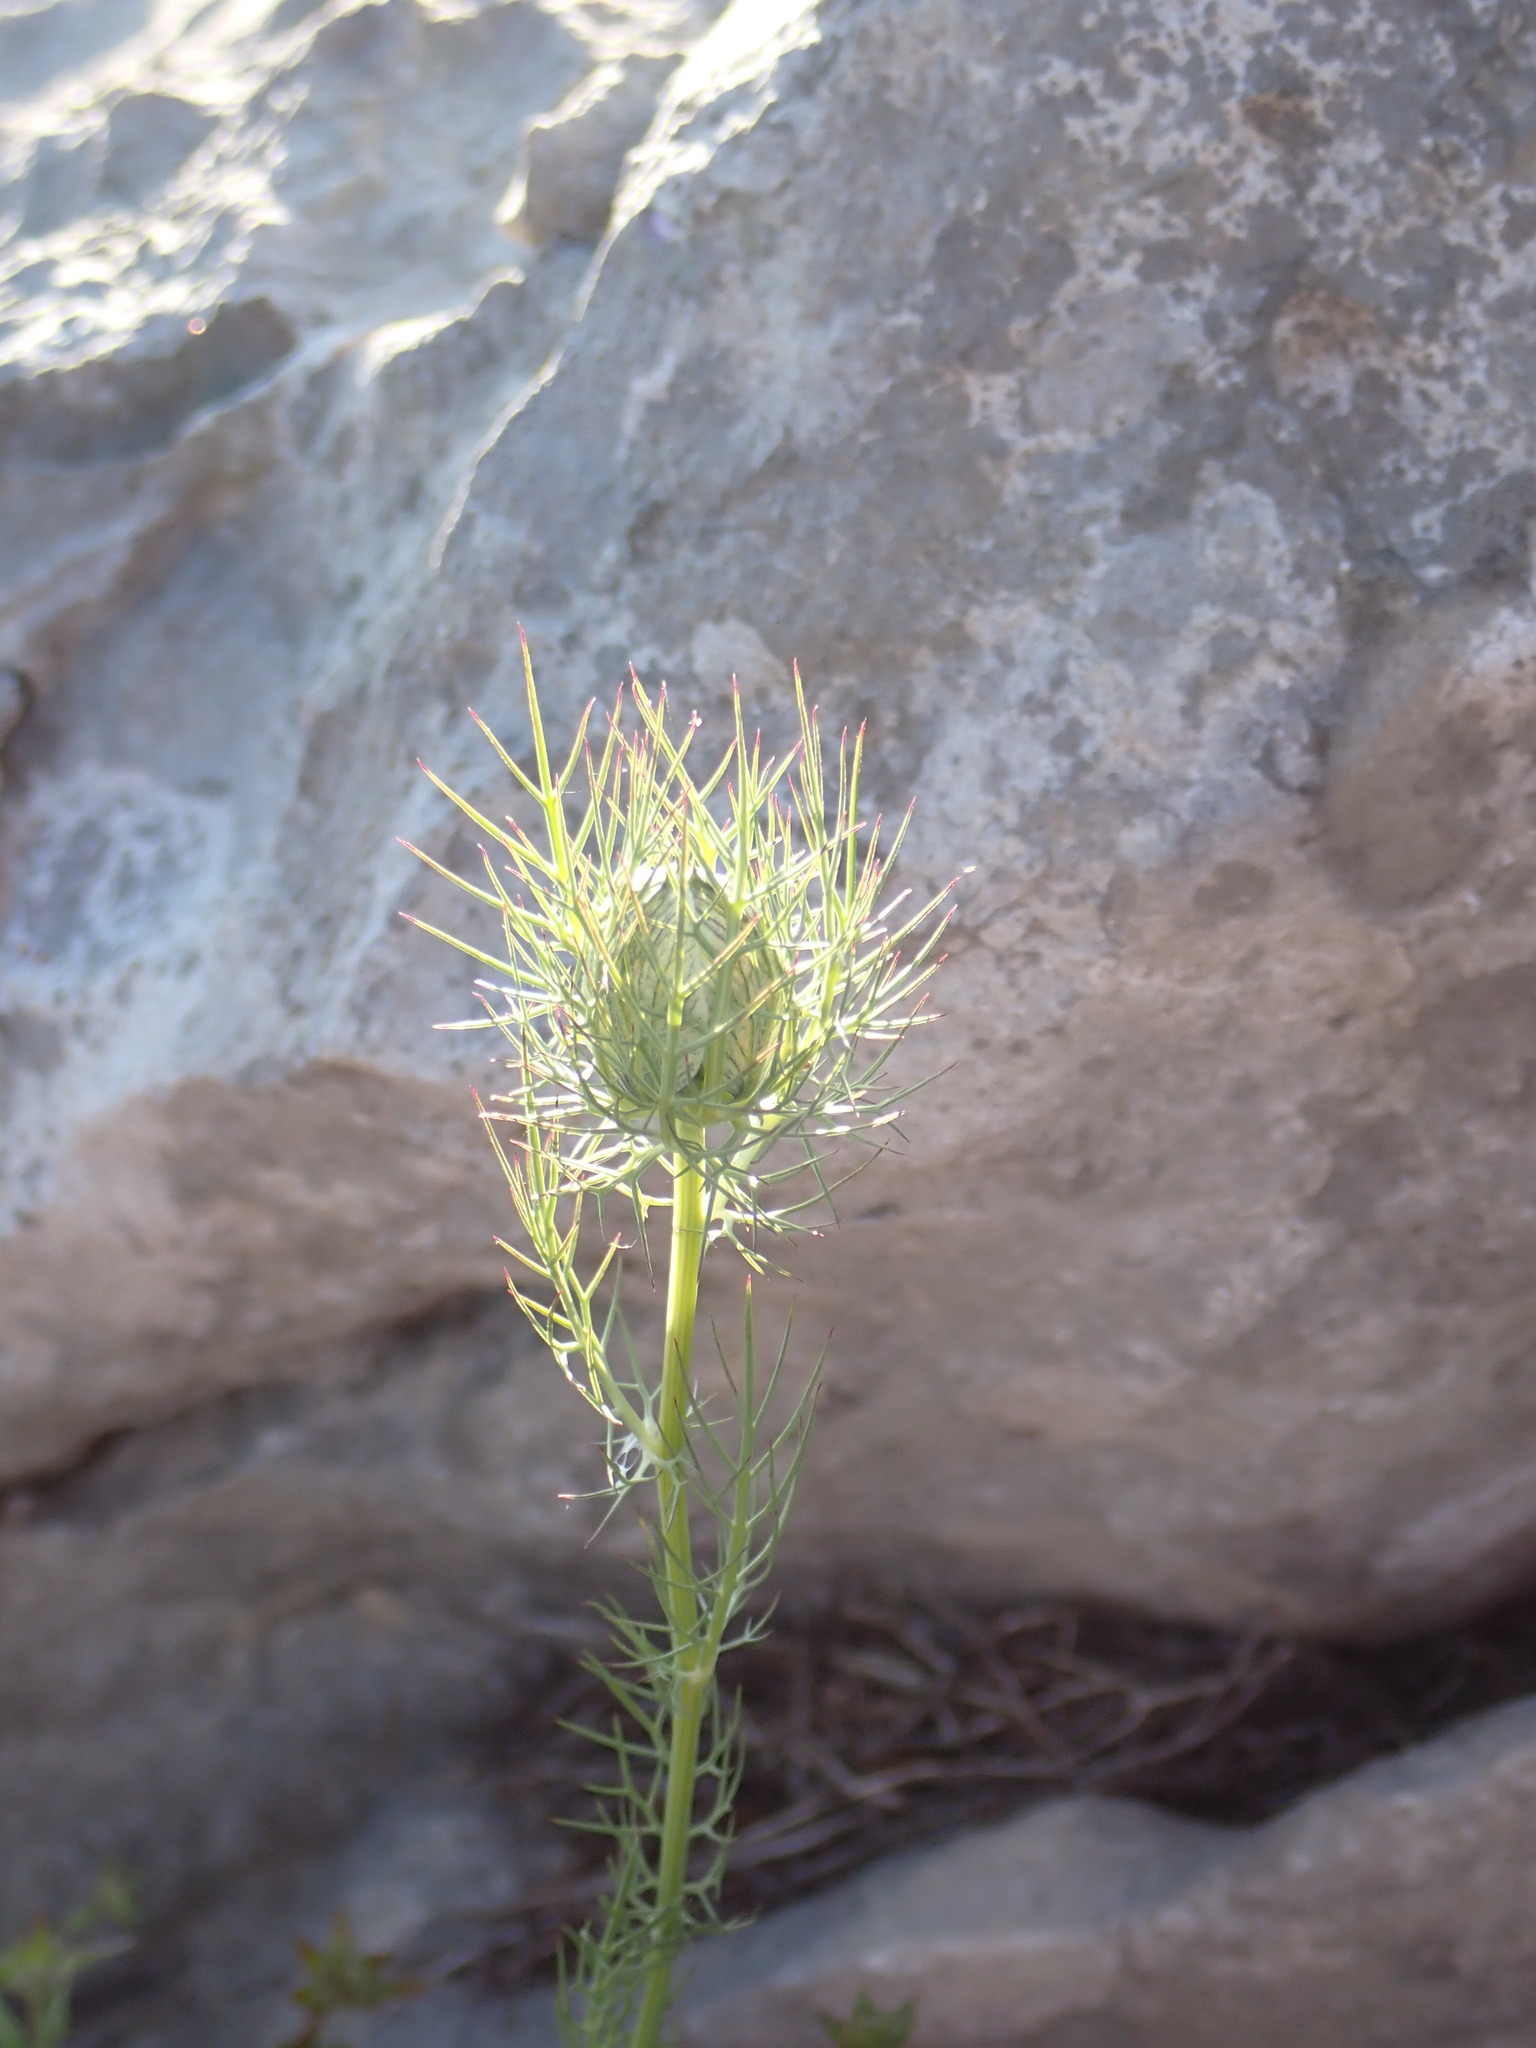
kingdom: Plantae
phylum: Tracheophyta
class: Magnoliopsida
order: Ranunculales
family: Ranunculaceae
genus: Nigella
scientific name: Nigella damascena
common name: Love-in-a-mist
